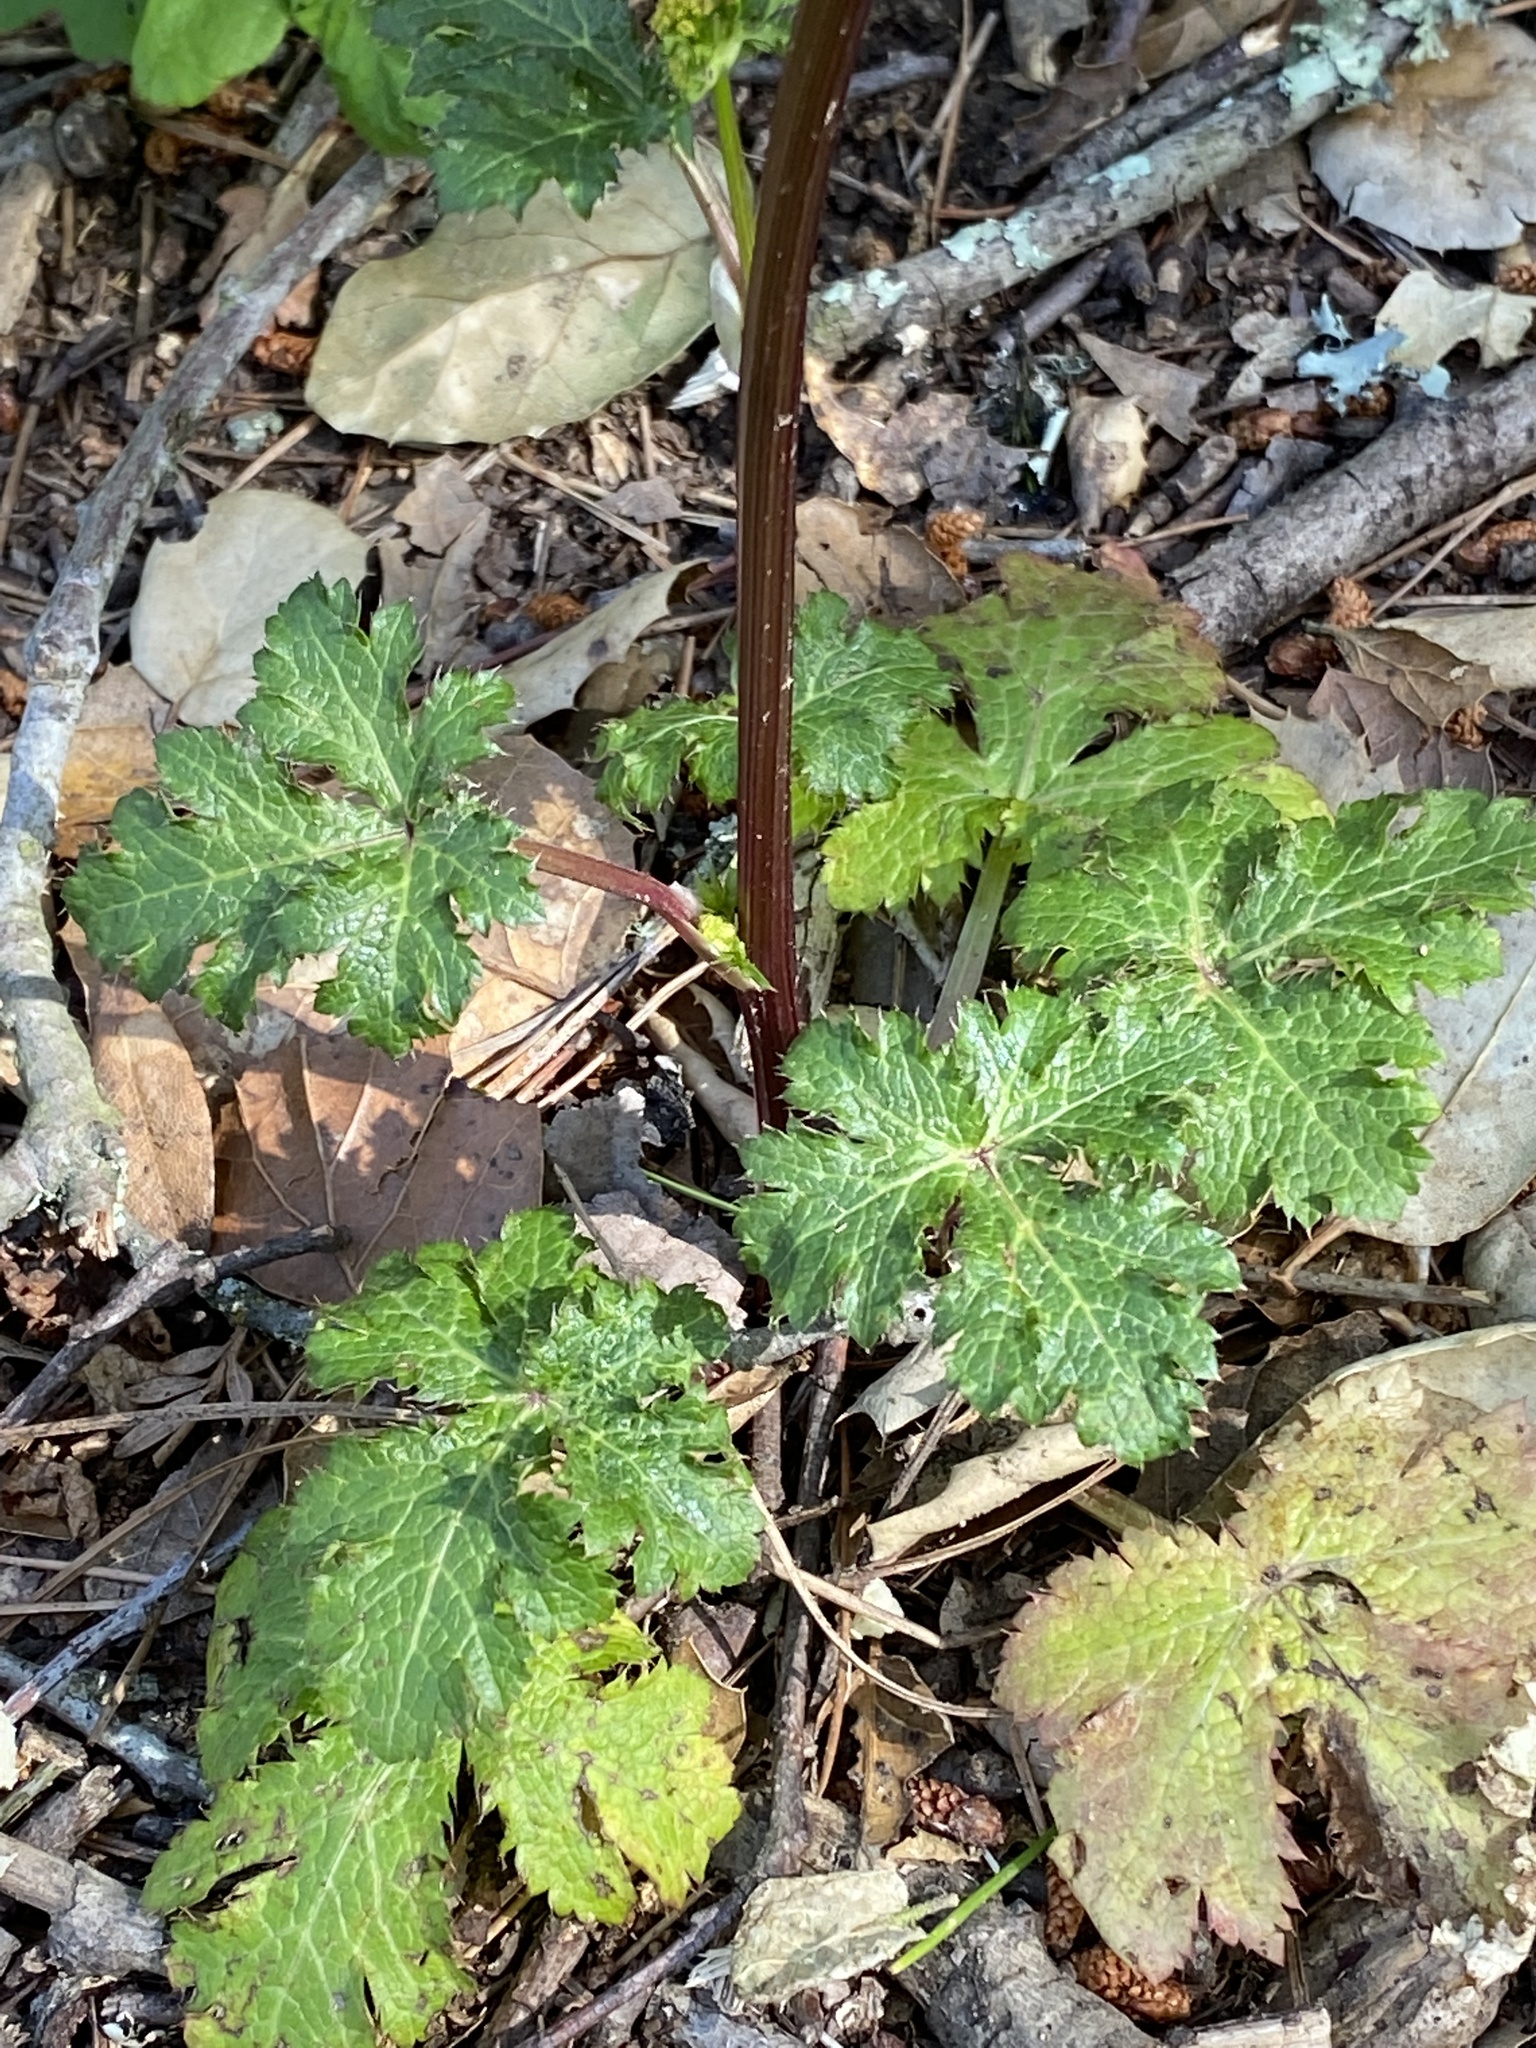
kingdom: Plantae
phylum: Tracheophyta
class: Magnoliopsida
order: Apiales
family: Apiaceae
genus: Sanicula
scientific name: Sanicula crassicaulis
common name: Western snakeroot
